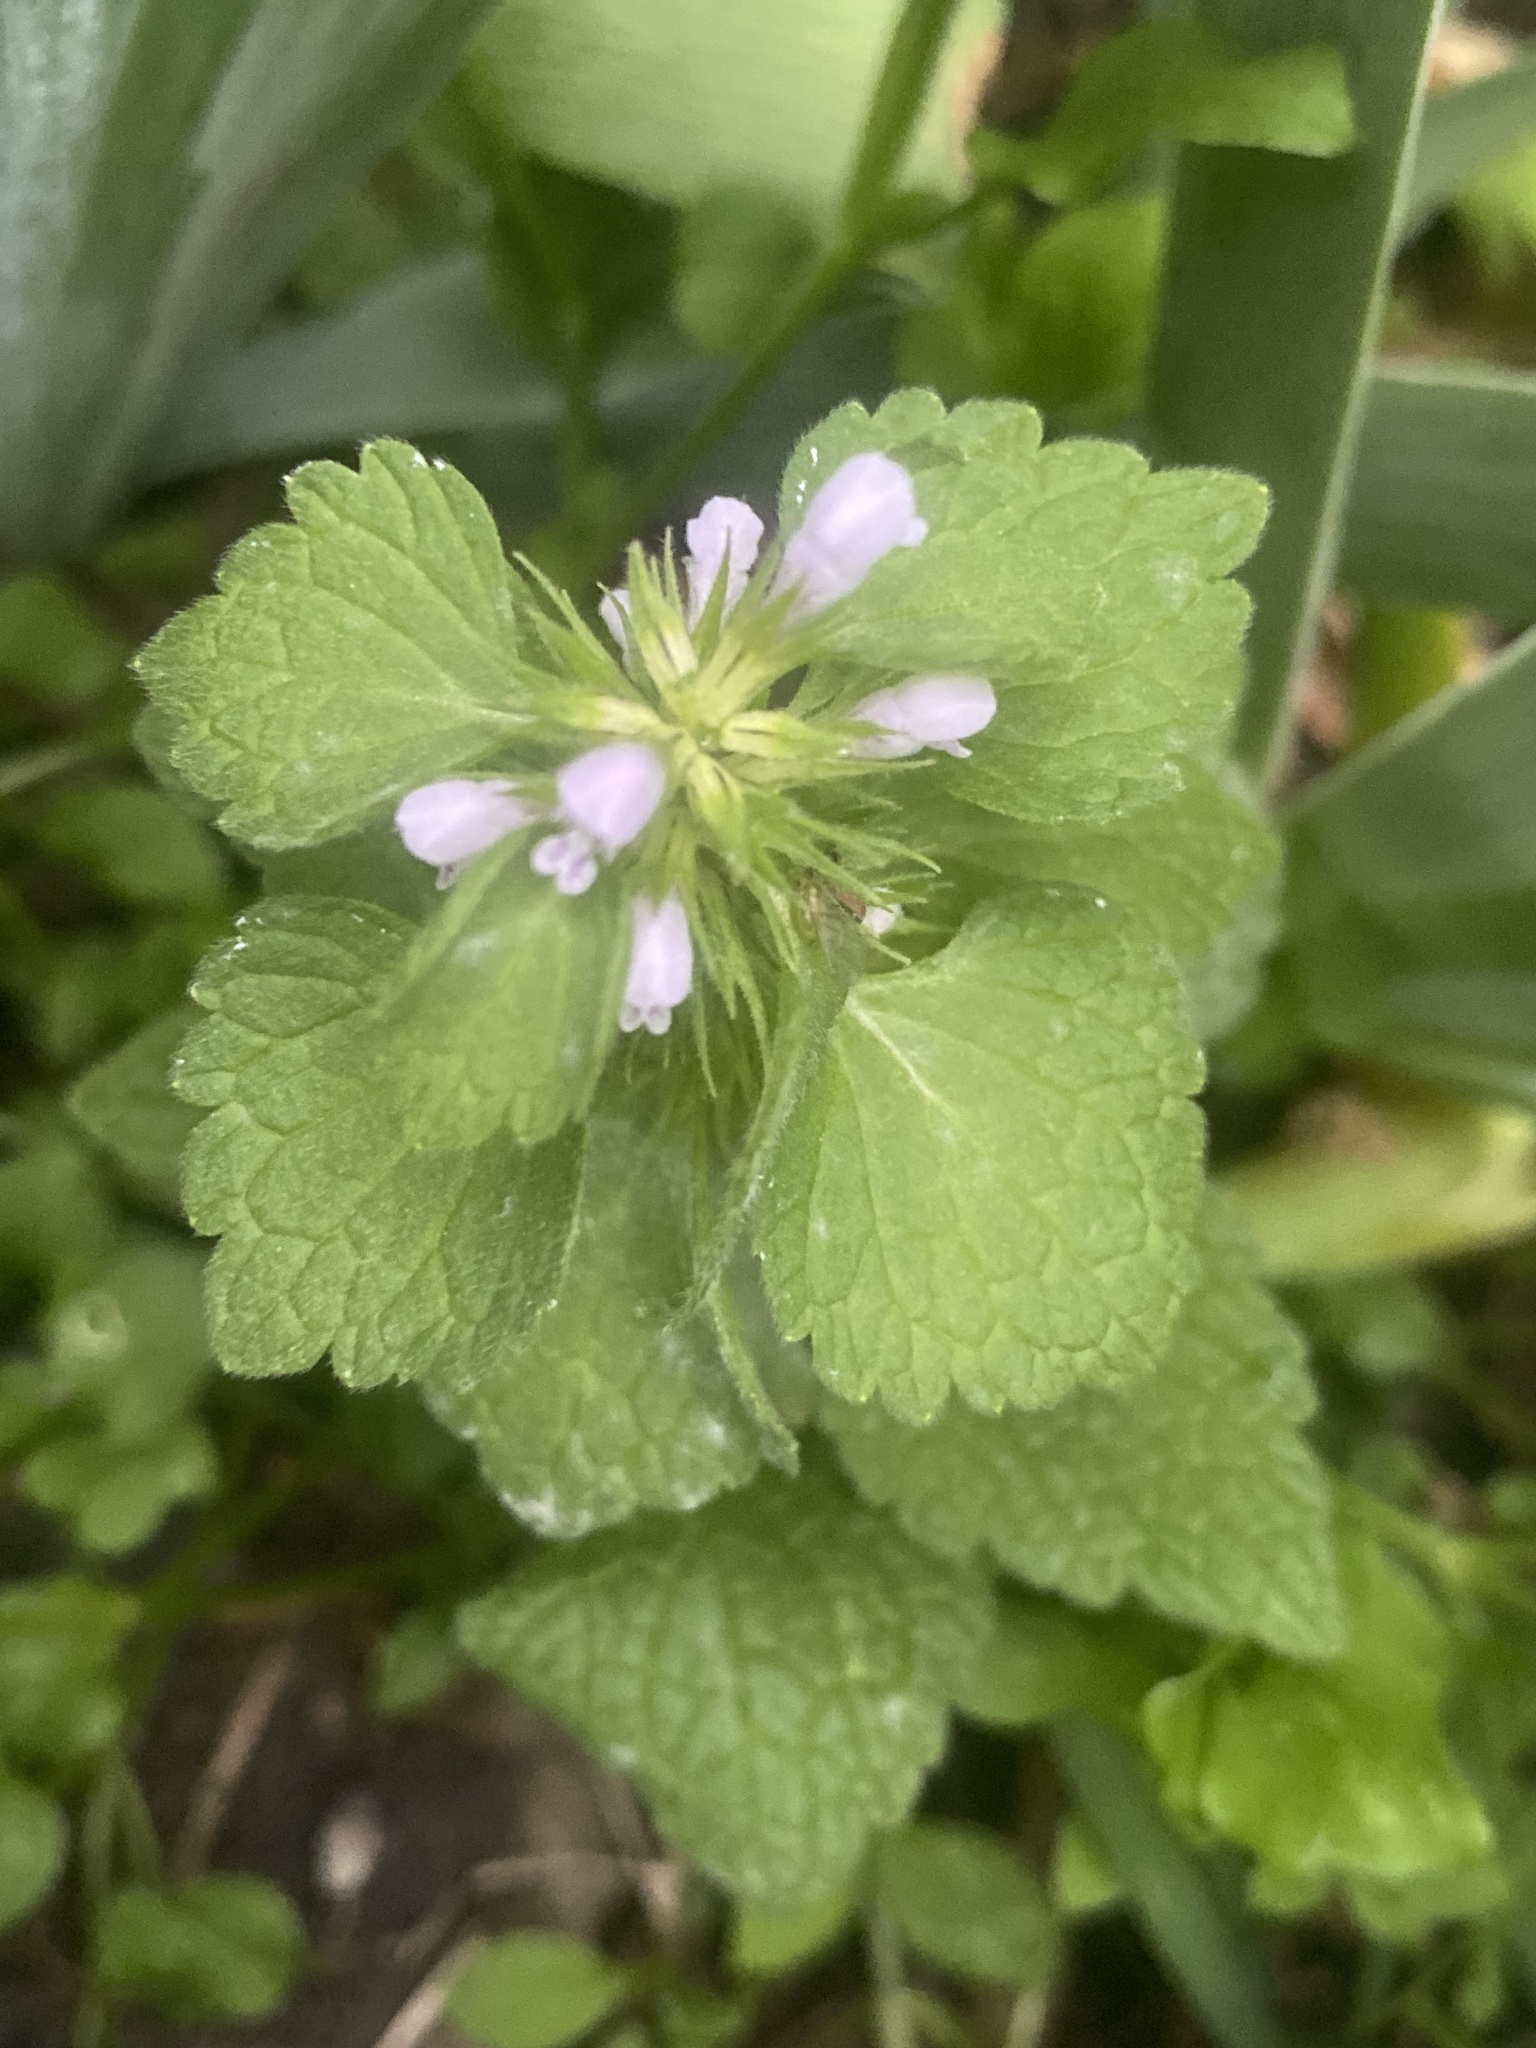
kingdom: Plantae
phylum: Tracheophyta
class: Magnoliopsida
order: Lamiales
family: Lamiaceae
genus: Lamium
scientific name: Lamium purpureum
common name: Red dead-nettle
